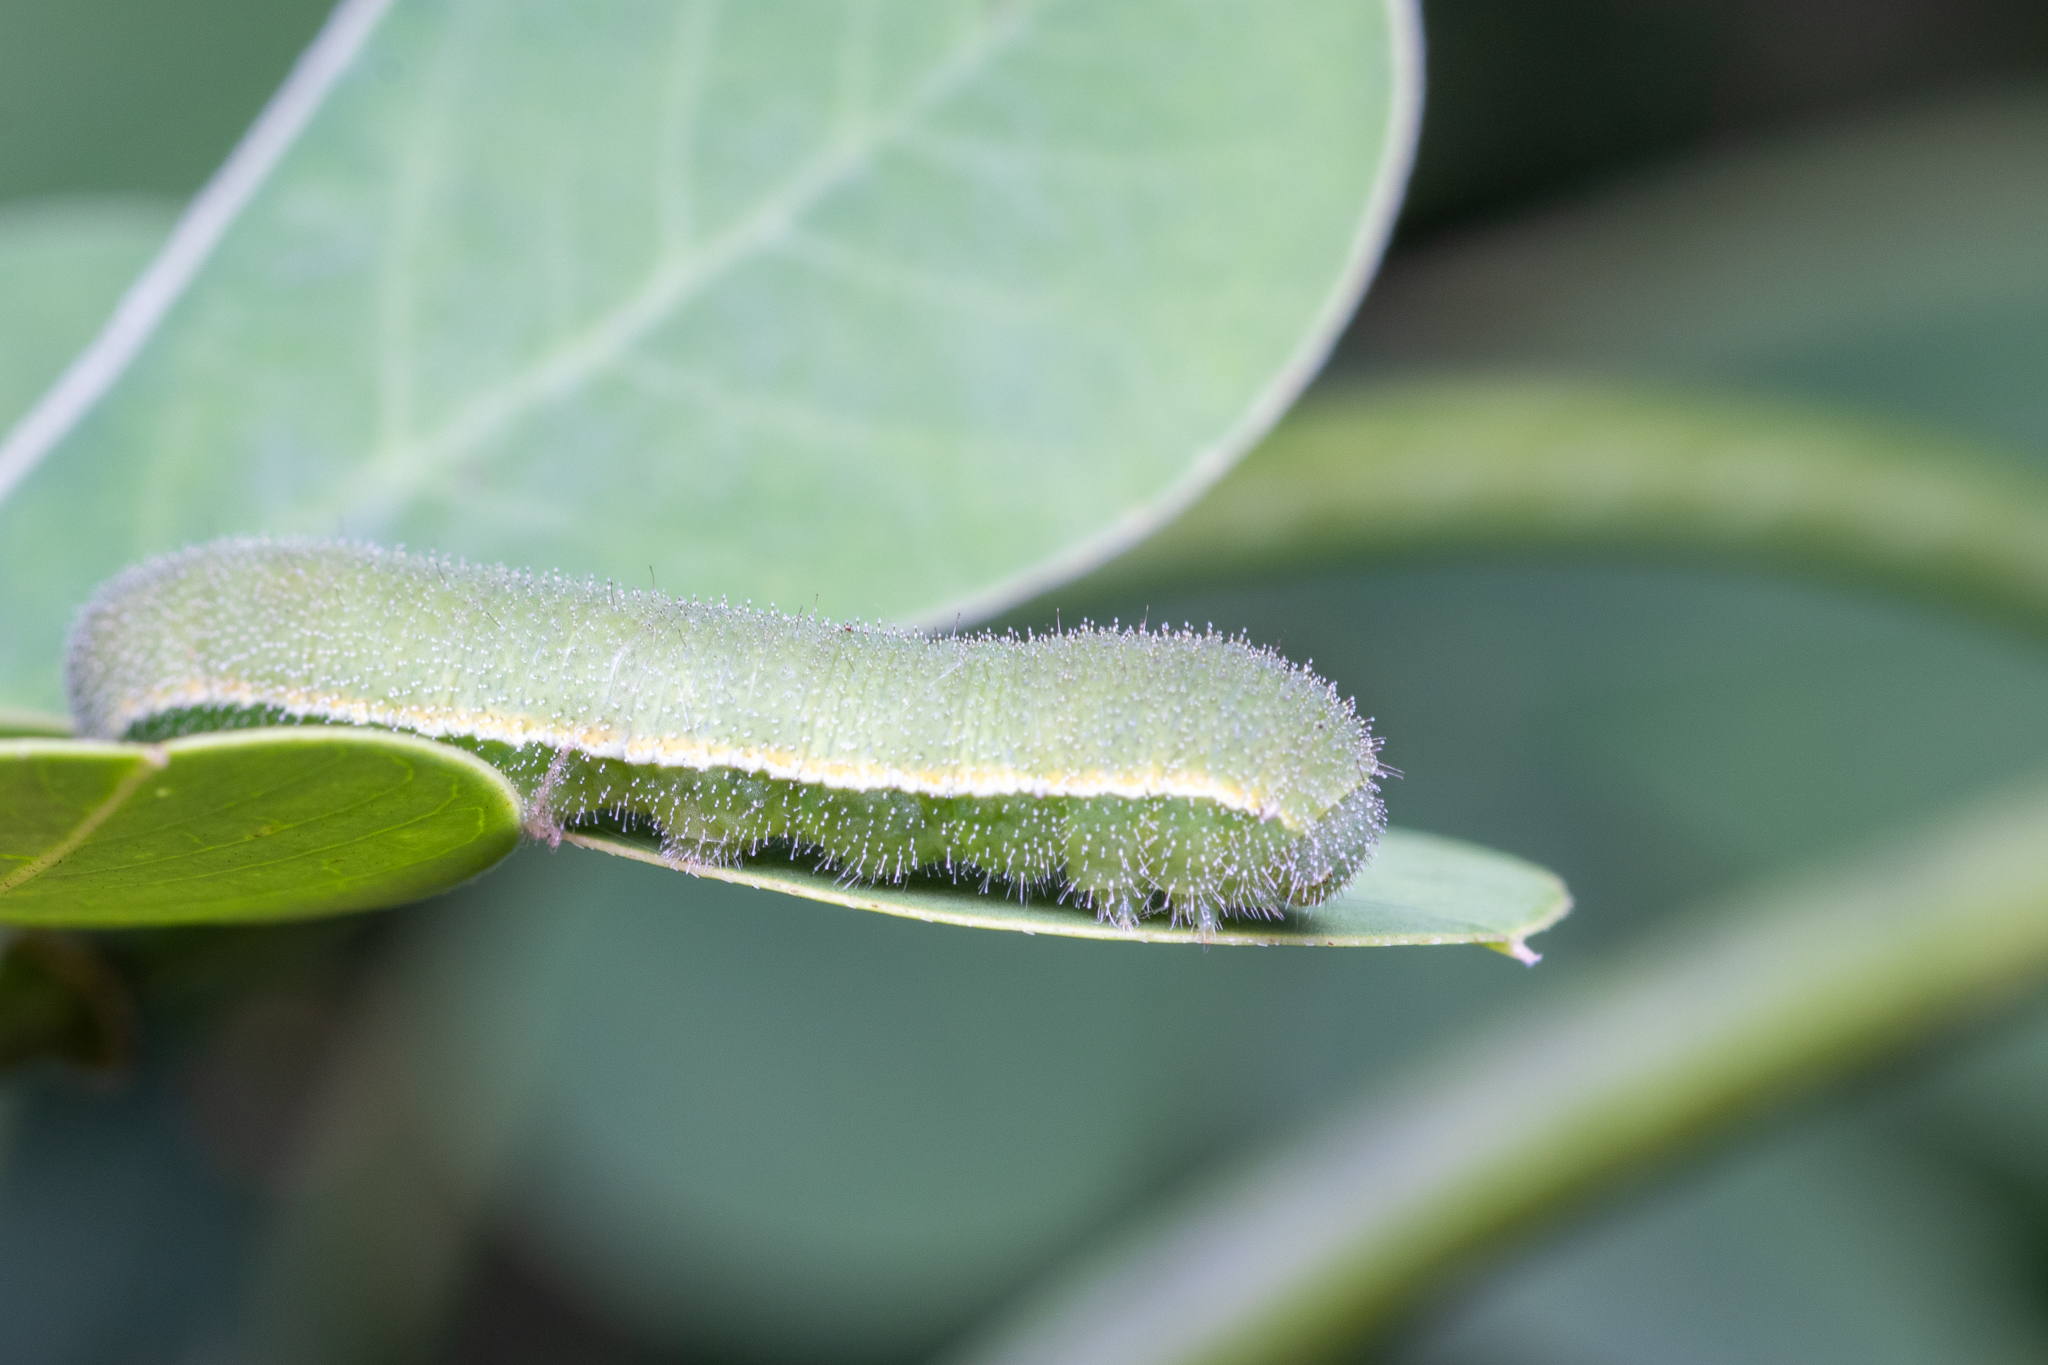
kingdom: Animalia
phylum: Arthropoda
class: Insecta
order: Lepidoptera
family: Pieridae
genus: Abaeis
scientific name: Abaeis nicippe
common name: Sleepy orange
